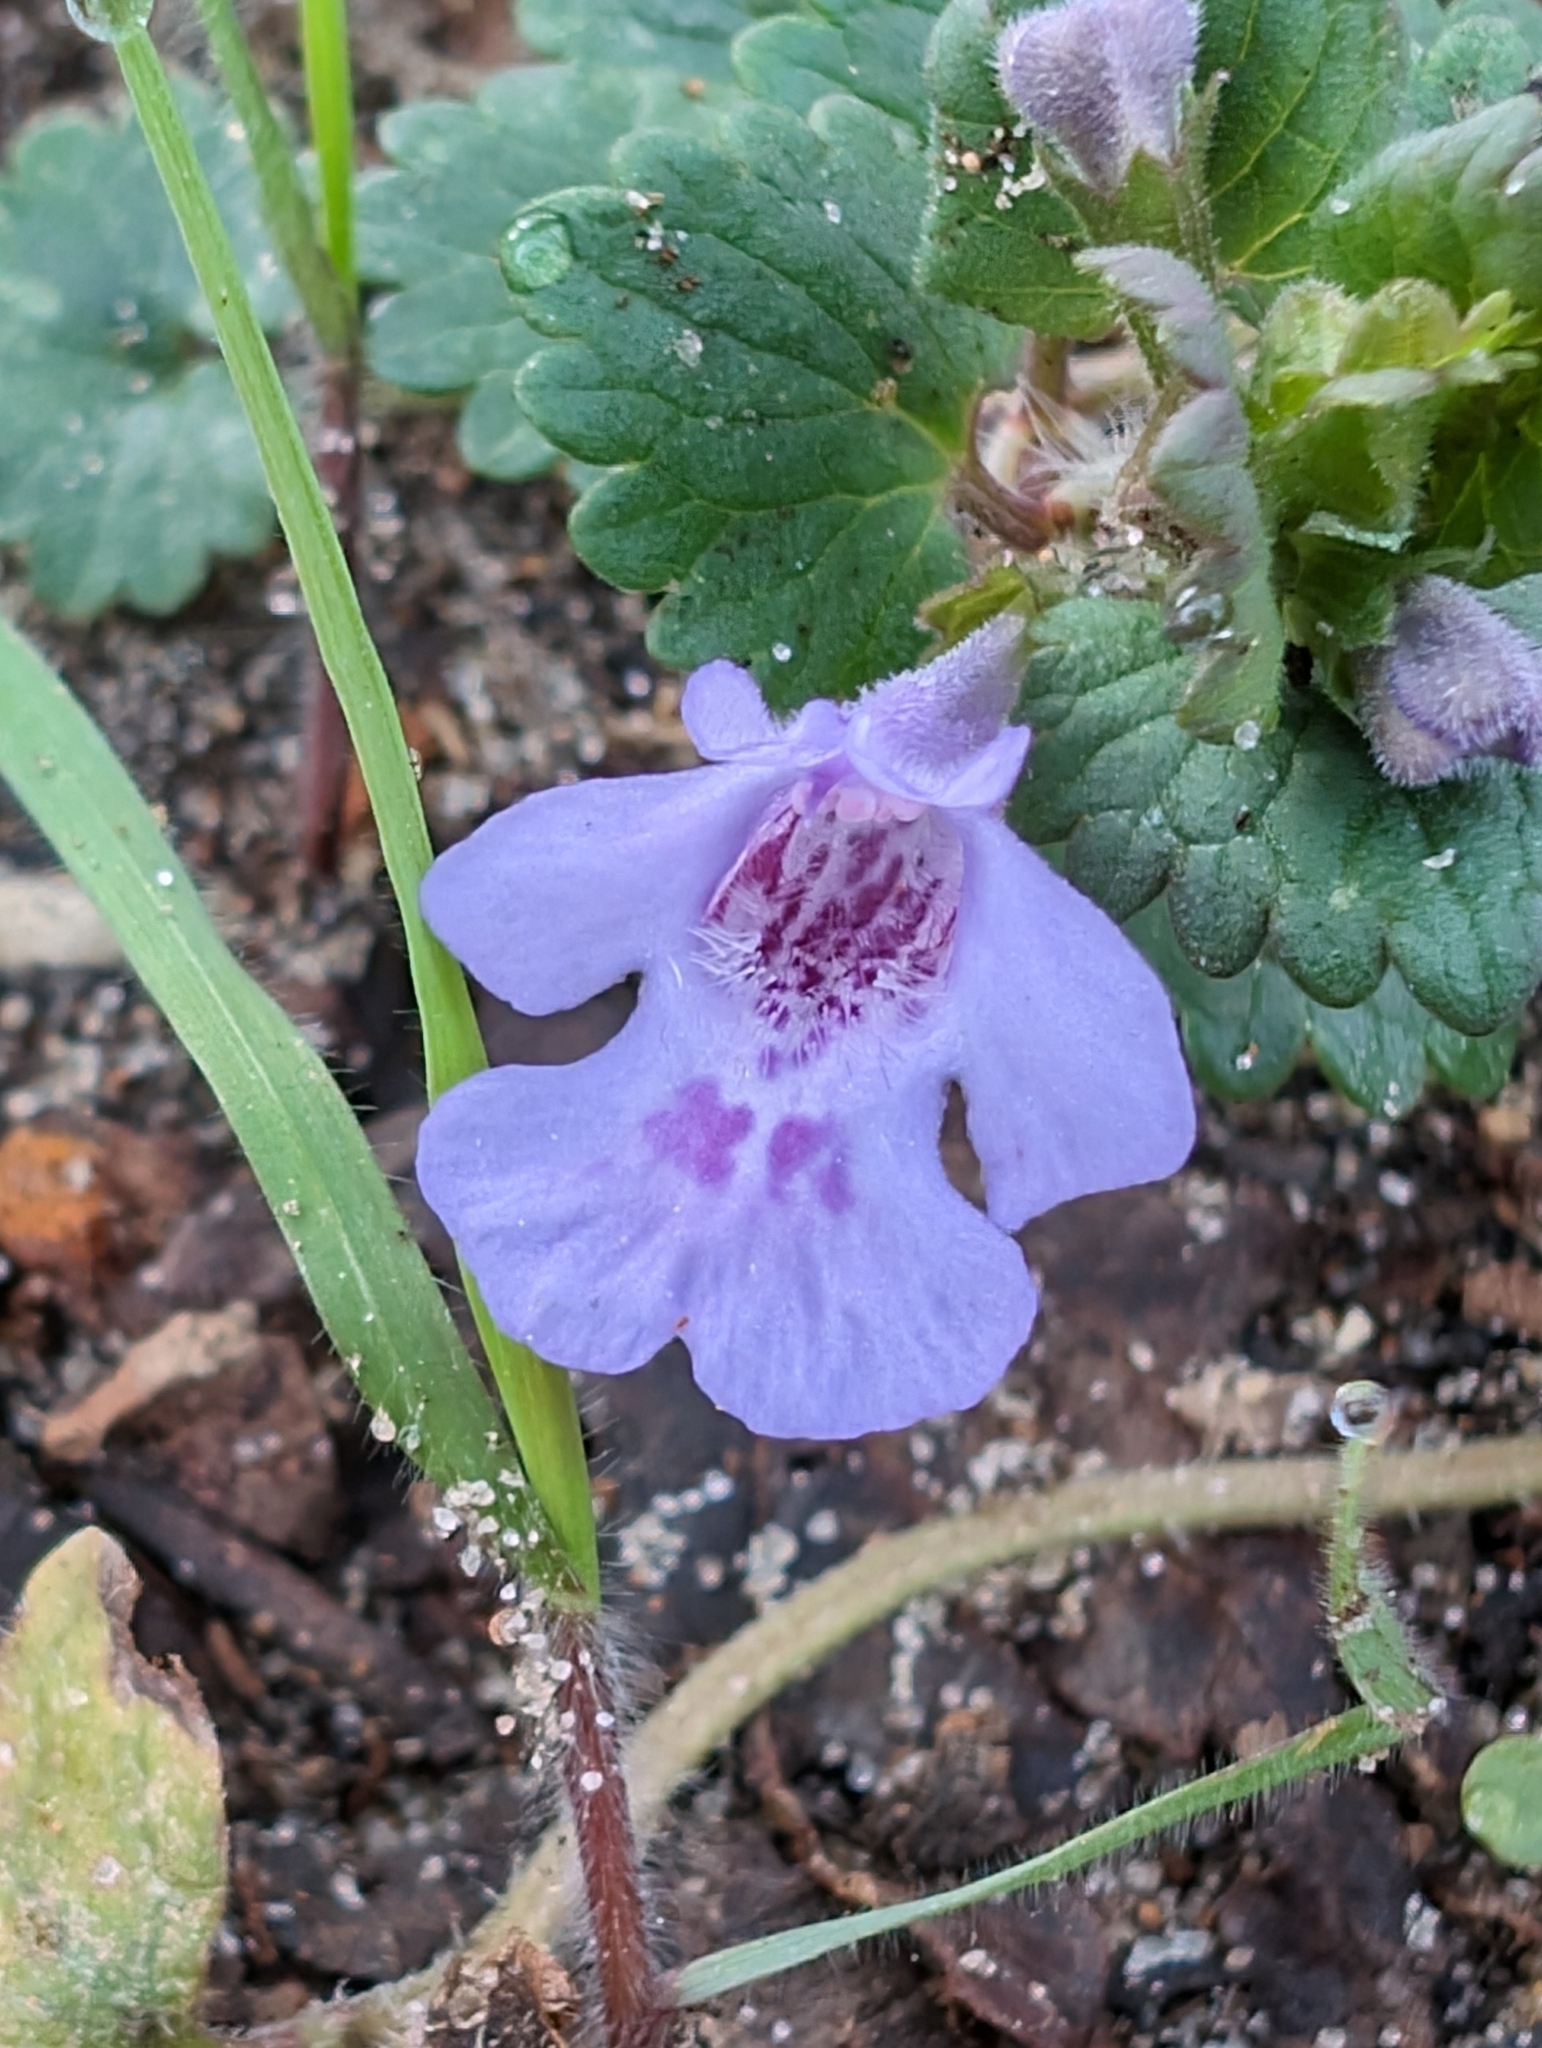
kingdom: Plantae
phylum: Tracheophyta
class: Magnoliopsida
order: Lamiales
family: Lamiaceae
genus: Glechoma
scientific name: Glechoma hederacea
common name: Ground ivy
